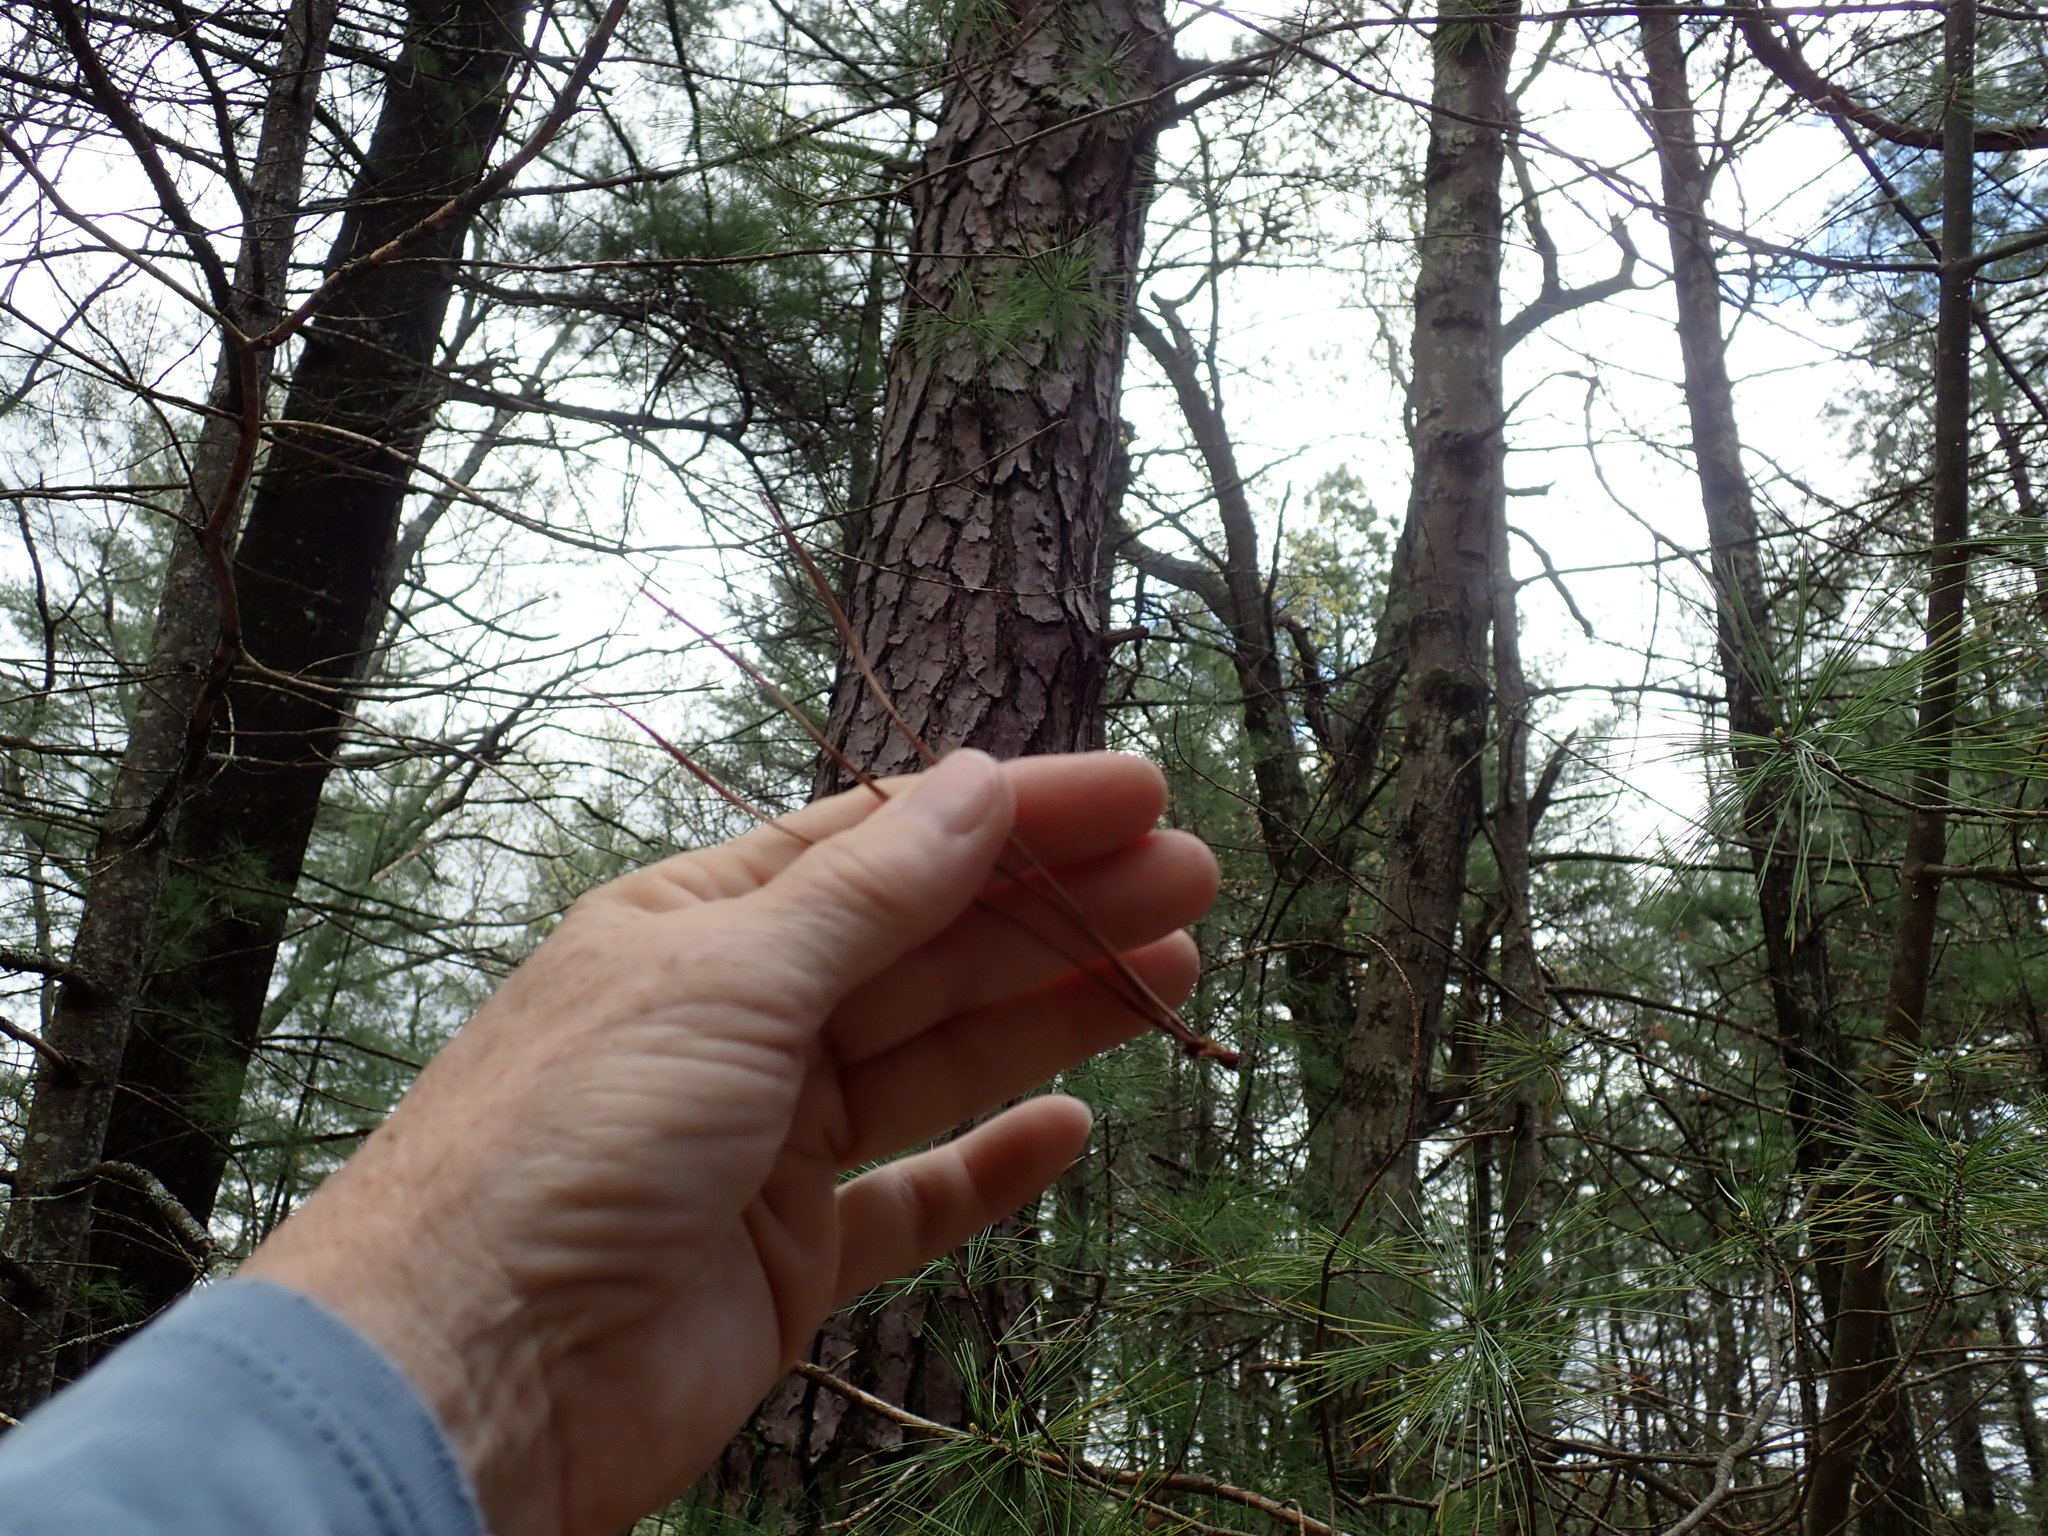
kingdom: Plantae
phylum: Tracheophyta
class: Pinopsida
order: Pinales
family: Pinaceae
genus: Pinus
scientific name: Pinus rigida
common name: Pitch pine
